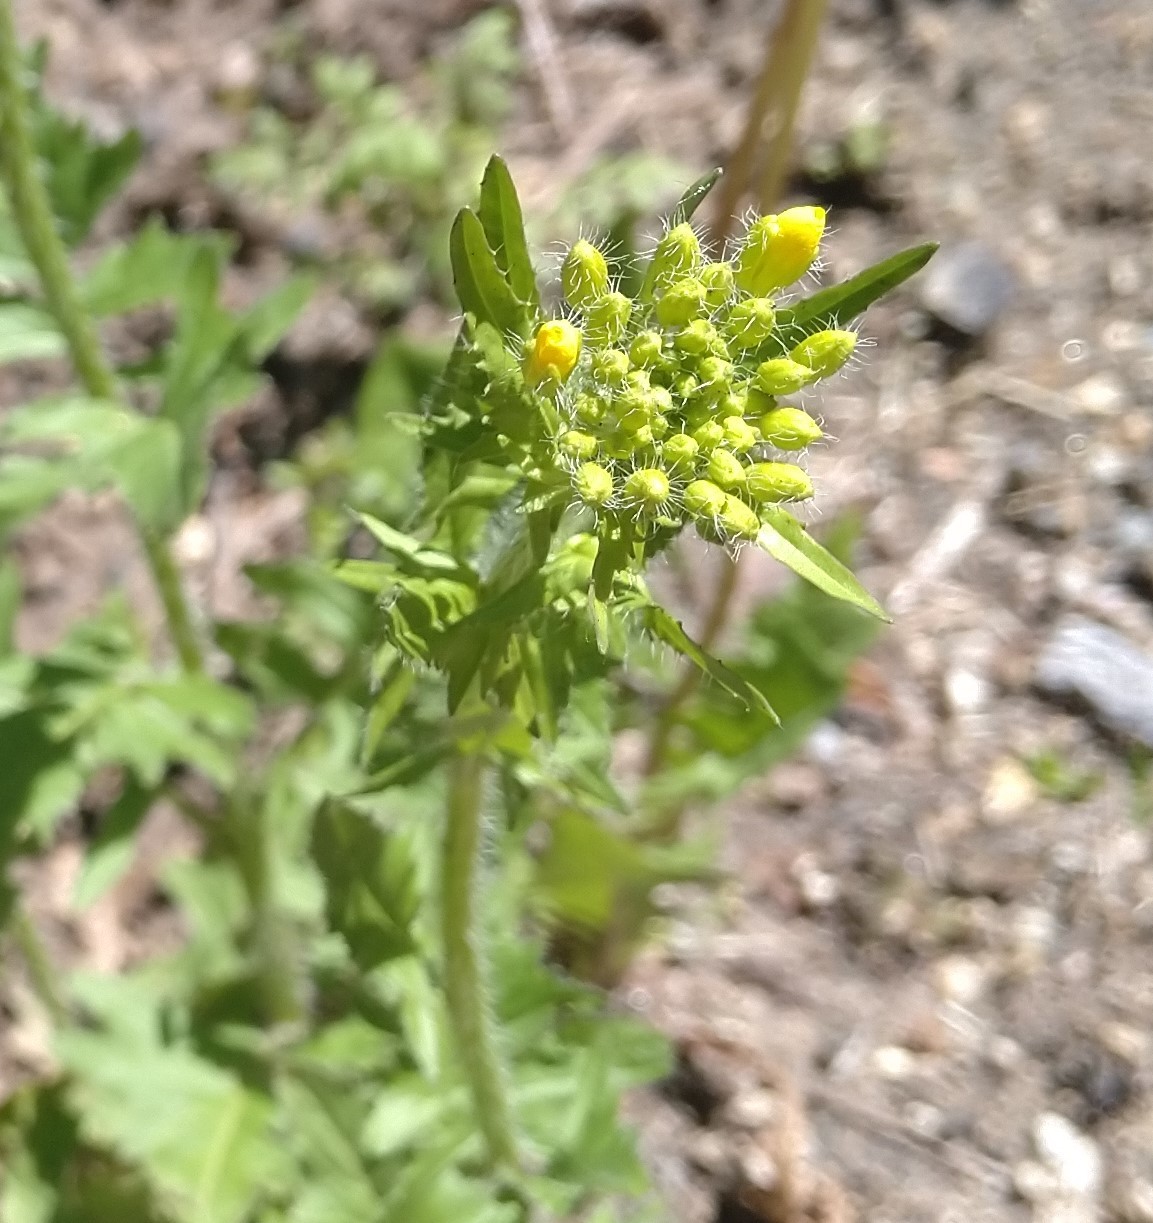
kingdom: Plantae
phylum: Tracheophyta
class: Magnoliopsida
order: Brassicales
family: Brassicaceae
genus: Sisymbrium
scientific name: Sisymbrium loeselii
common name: False london-rocket
